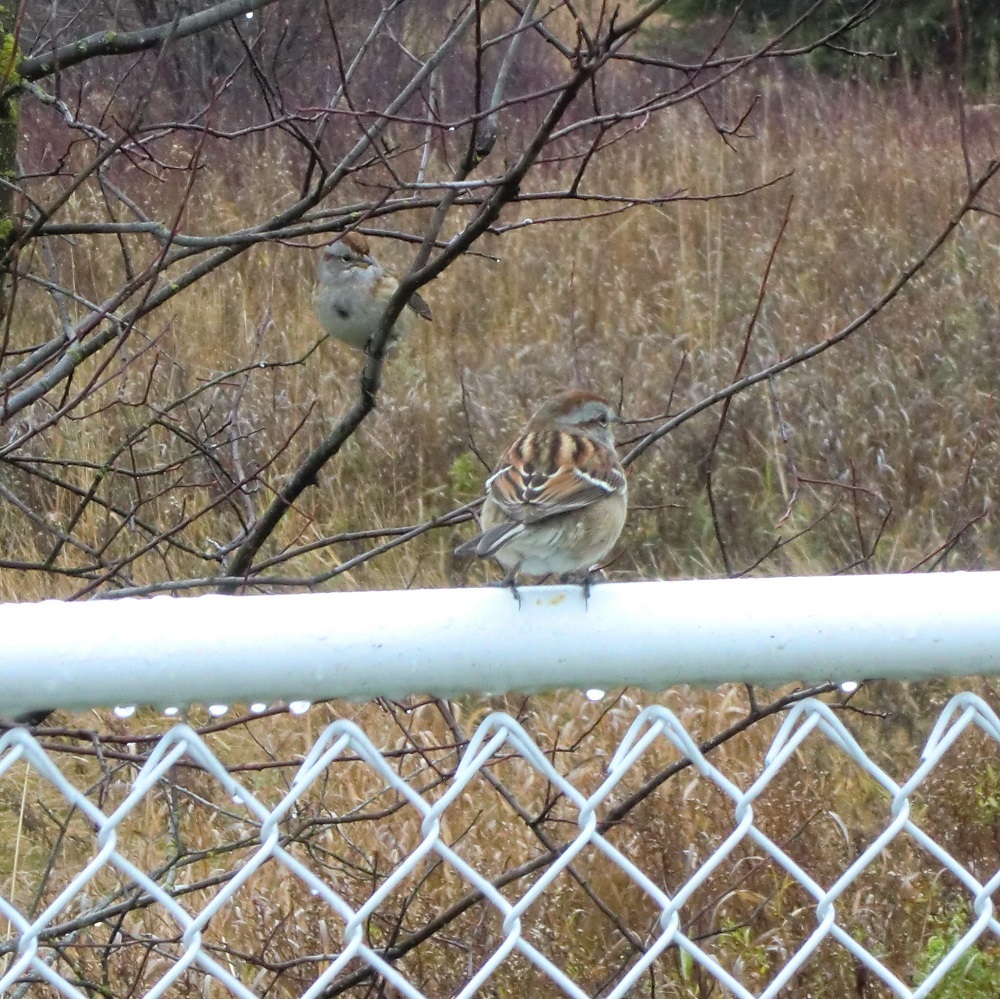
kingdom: Animalia
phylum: Chordata
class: Aves
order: Passeriformes
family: Passerellidae
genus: Spizelloides
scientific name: Spizelloides arborea
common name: American tree sparrow
